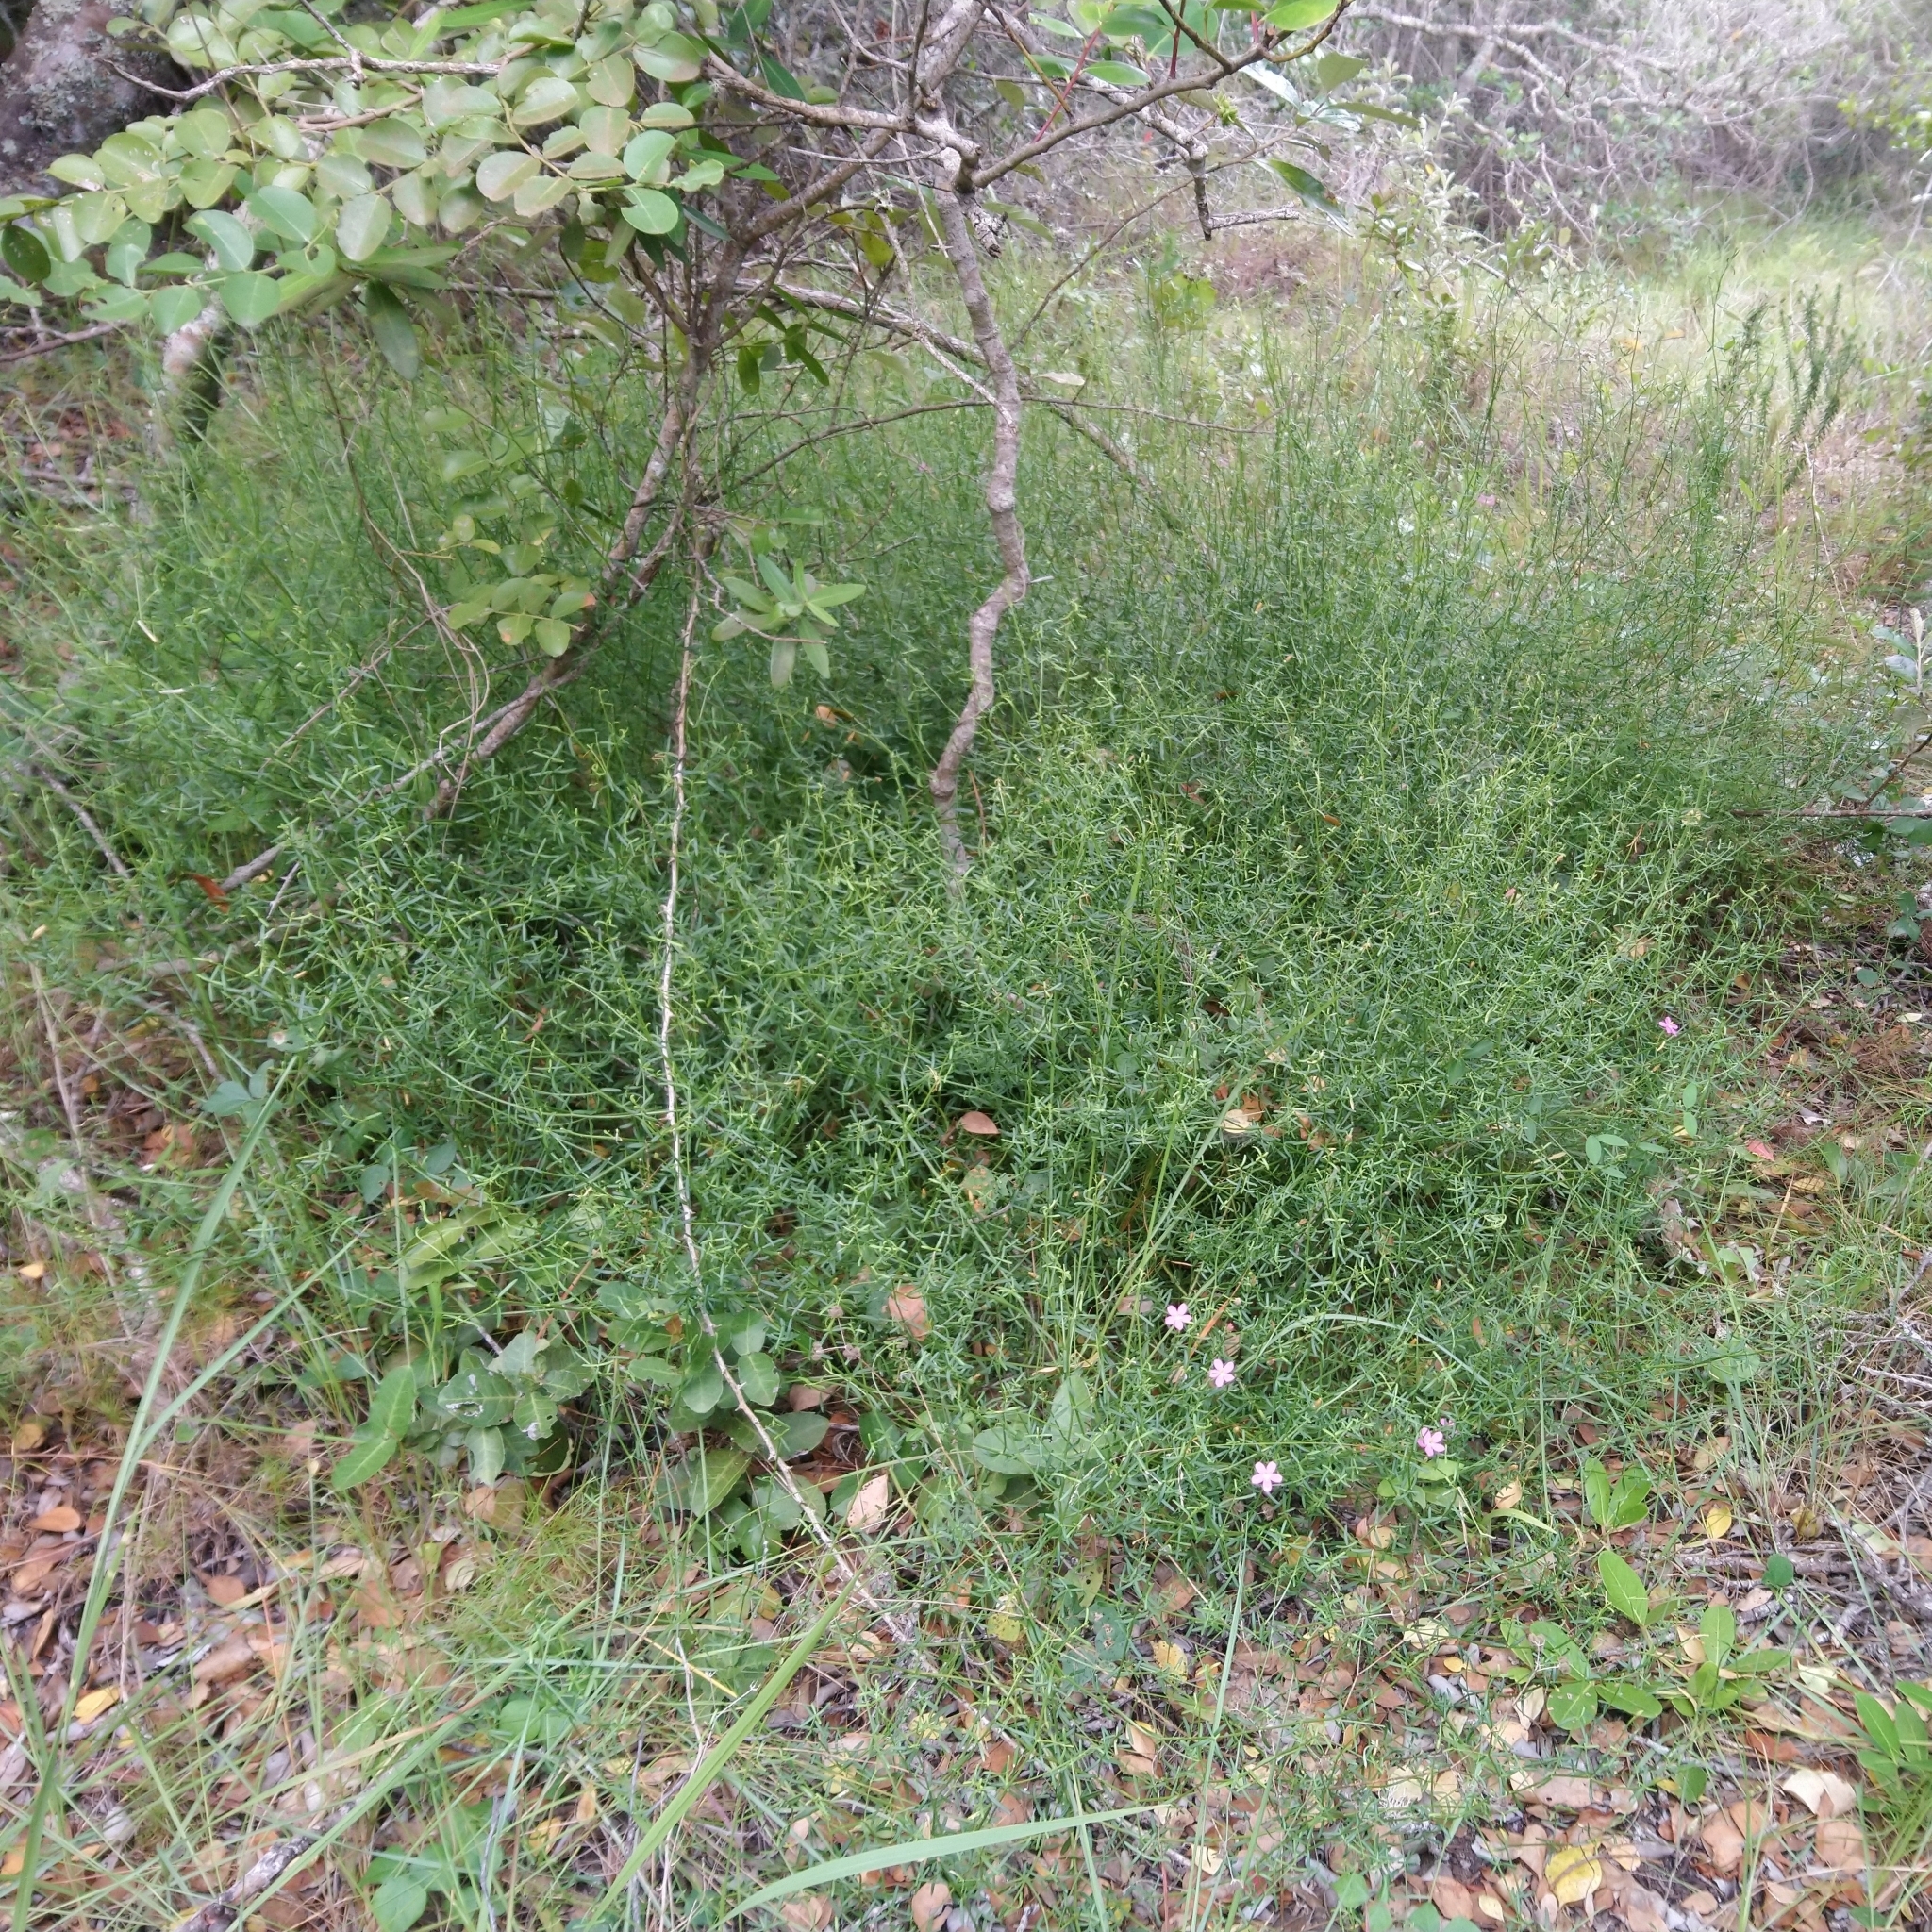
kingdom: Plantae
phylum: Tracheophyta
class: Magnoliopsida
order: Gentianales
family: Gentianaceae
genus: Chironia
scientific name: Chironia baccifera
